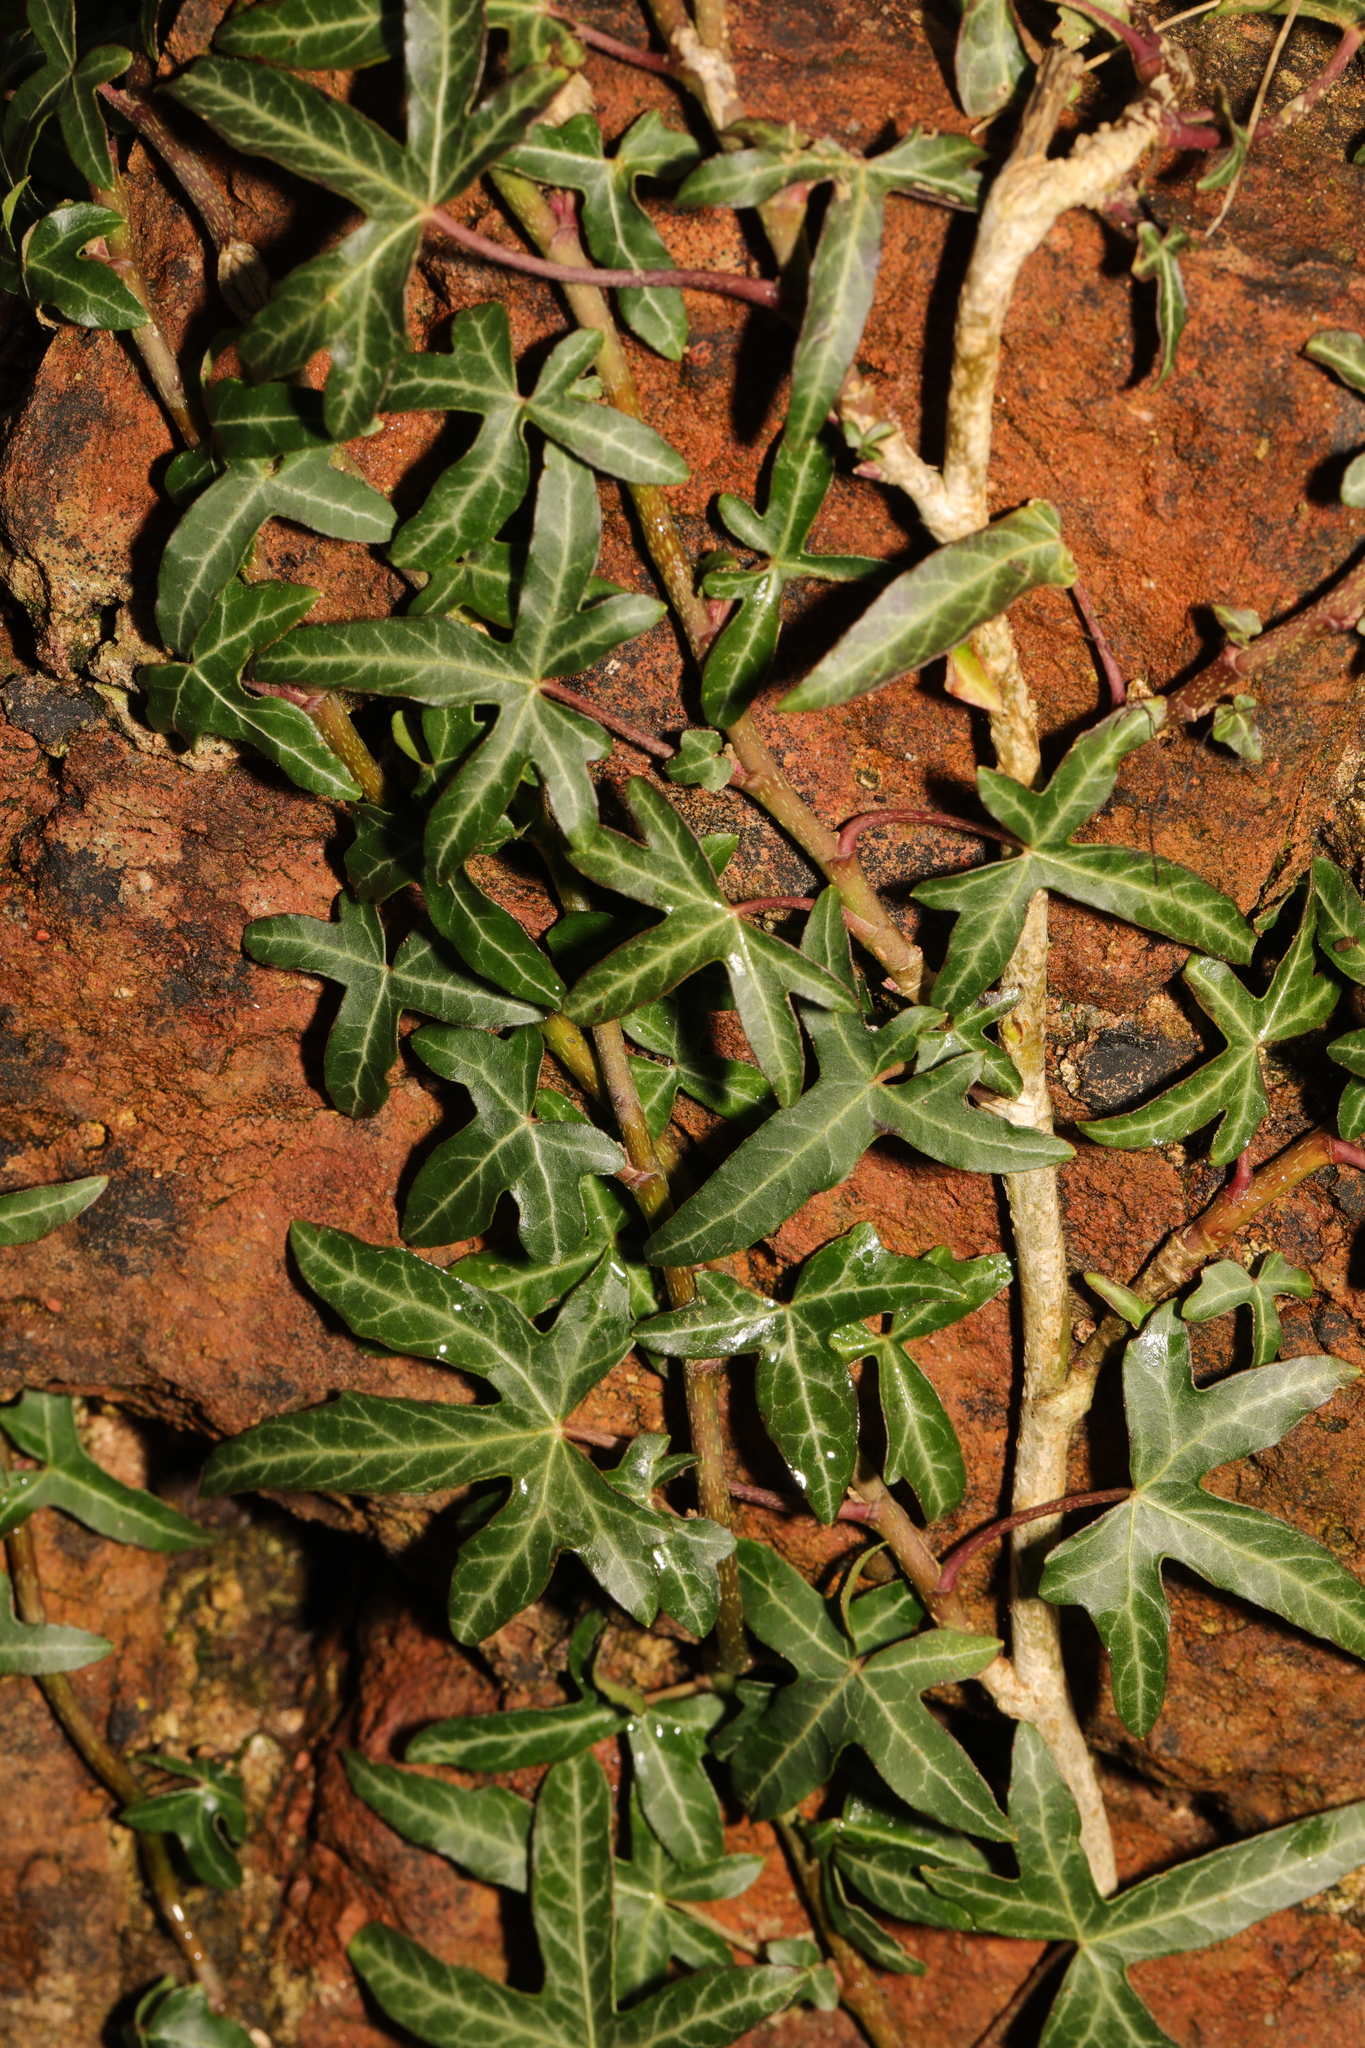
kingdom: Plantae
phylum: Tracheophyta
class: Magnoliopsida
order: Apiales
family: Araliaceae
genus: Hedera
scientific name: Hedera helix
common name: Ivy
